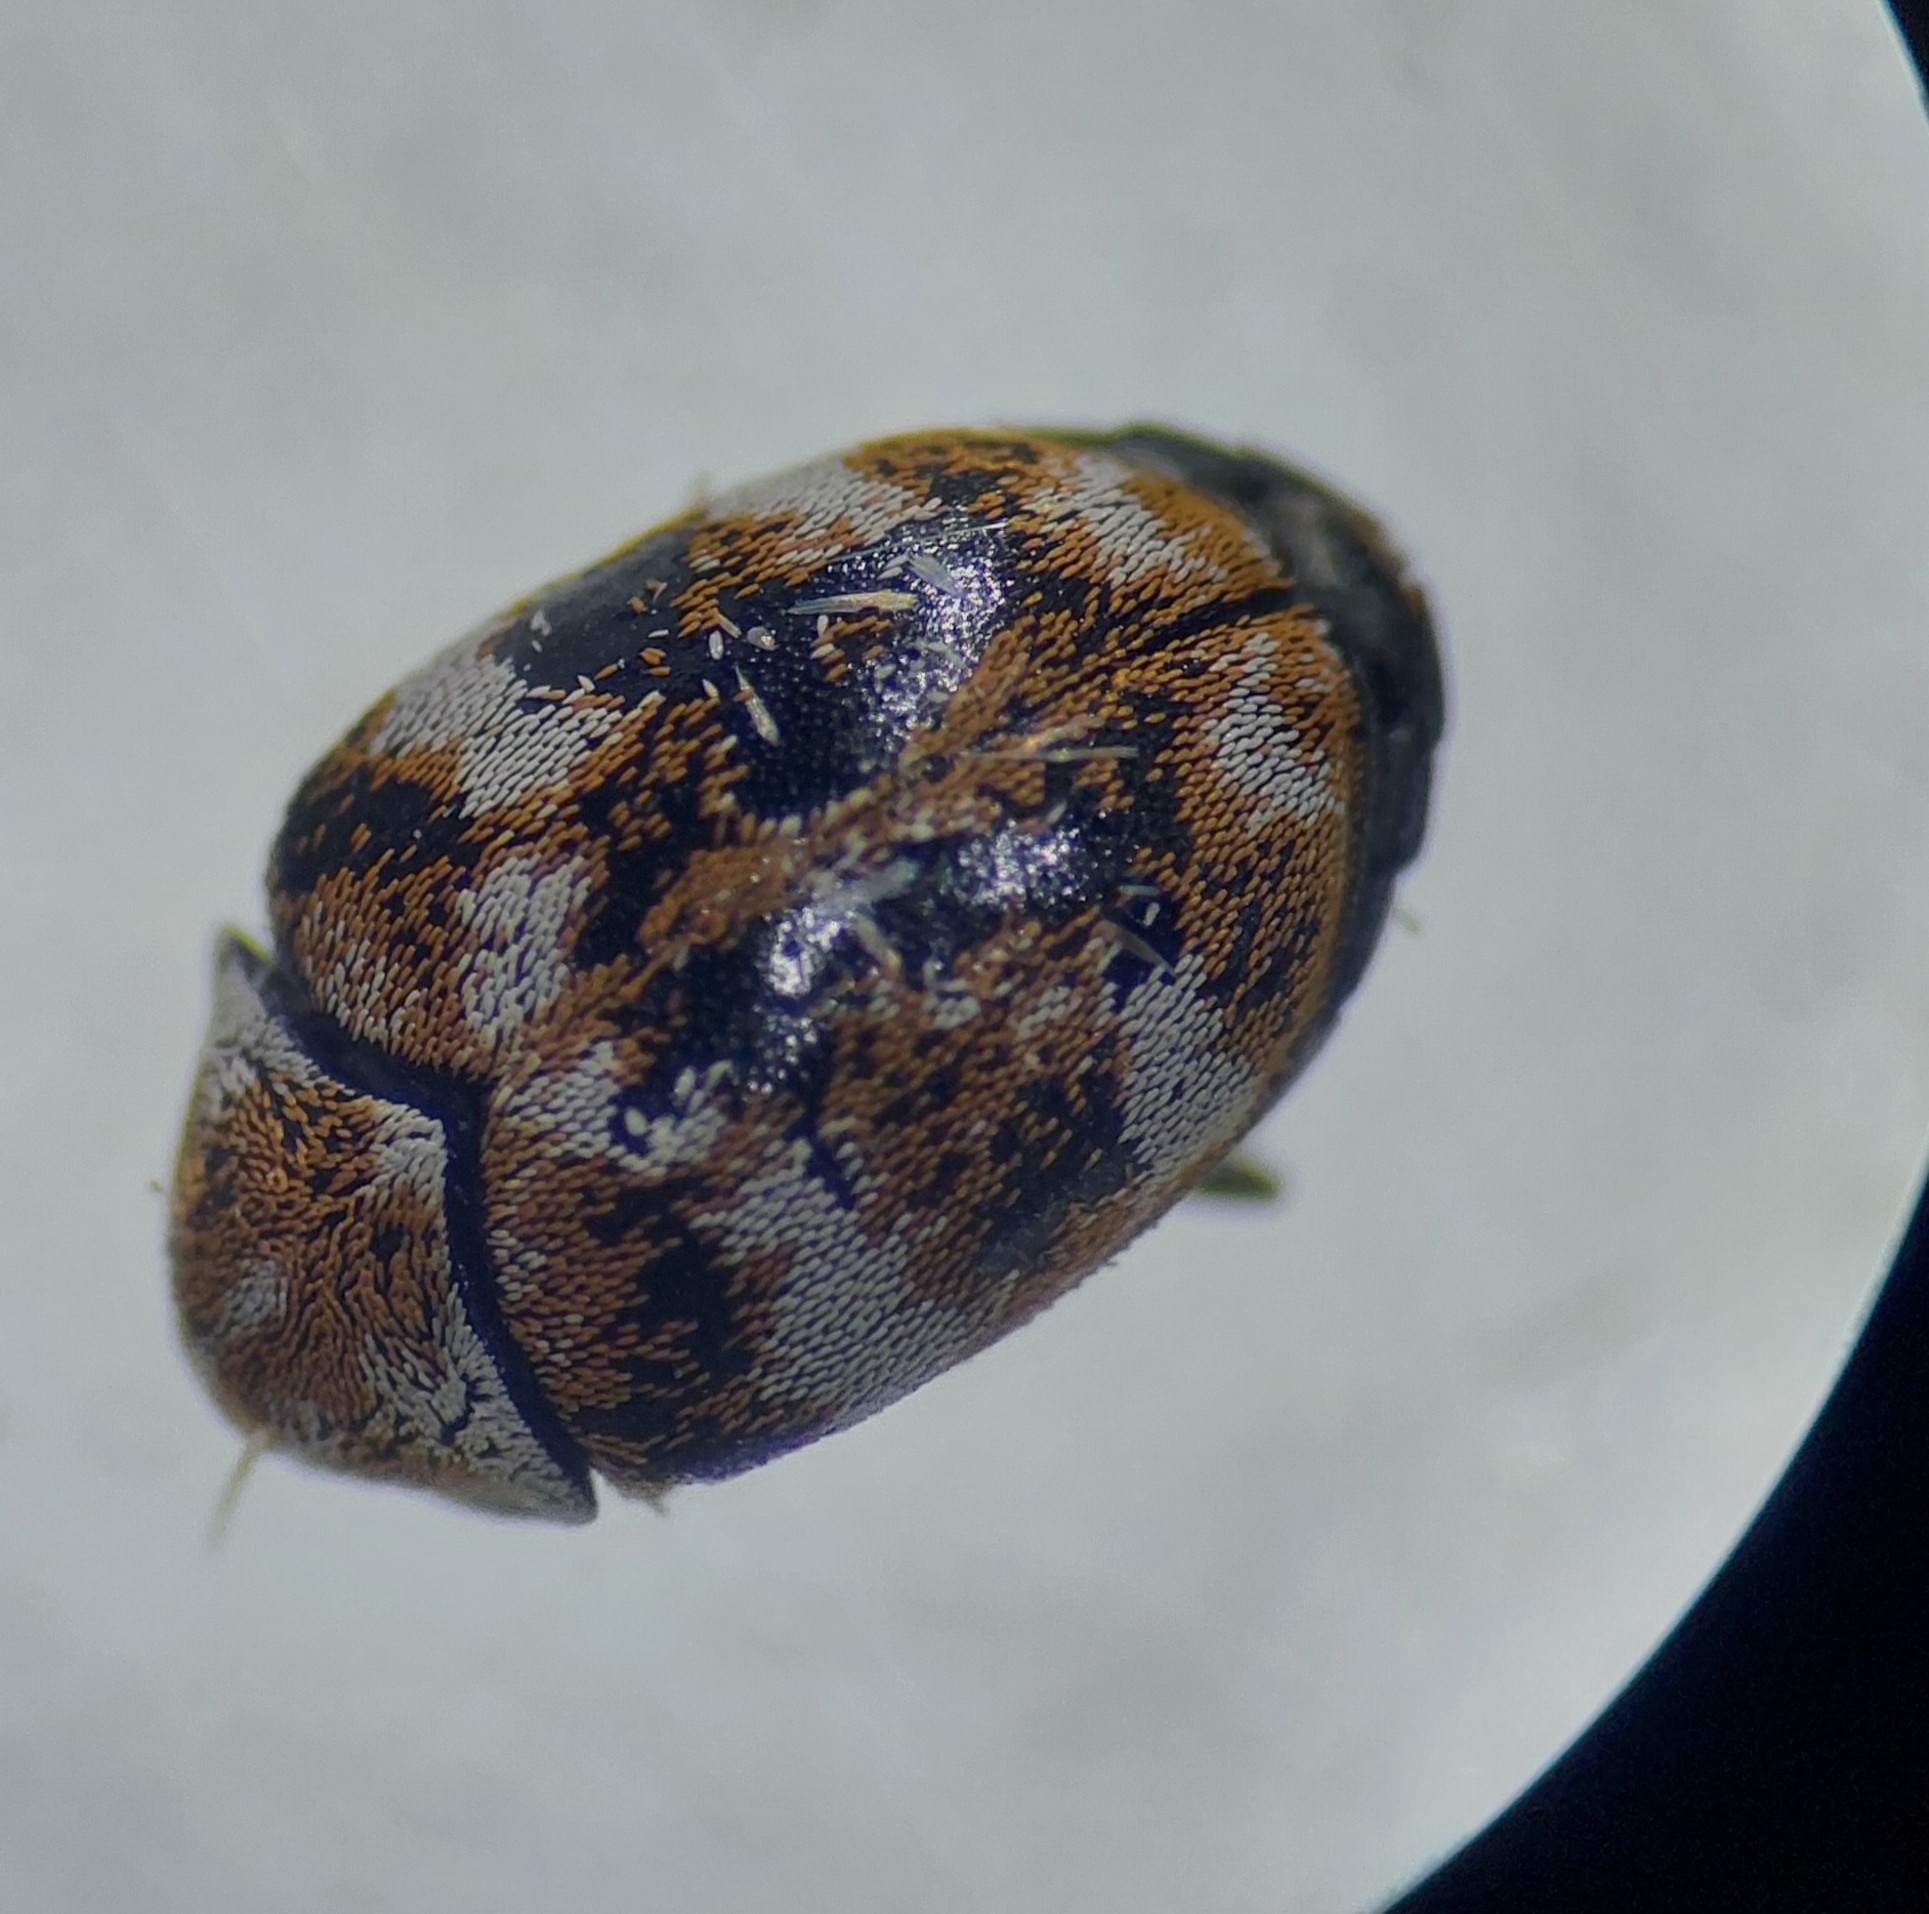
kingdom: Animalia
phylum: Arthropoda
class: Insecta
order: Coleoptera
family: Dermestidae
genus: Anthrenus
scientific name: Anthrenus verbasci
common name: Varied carpet beetle
